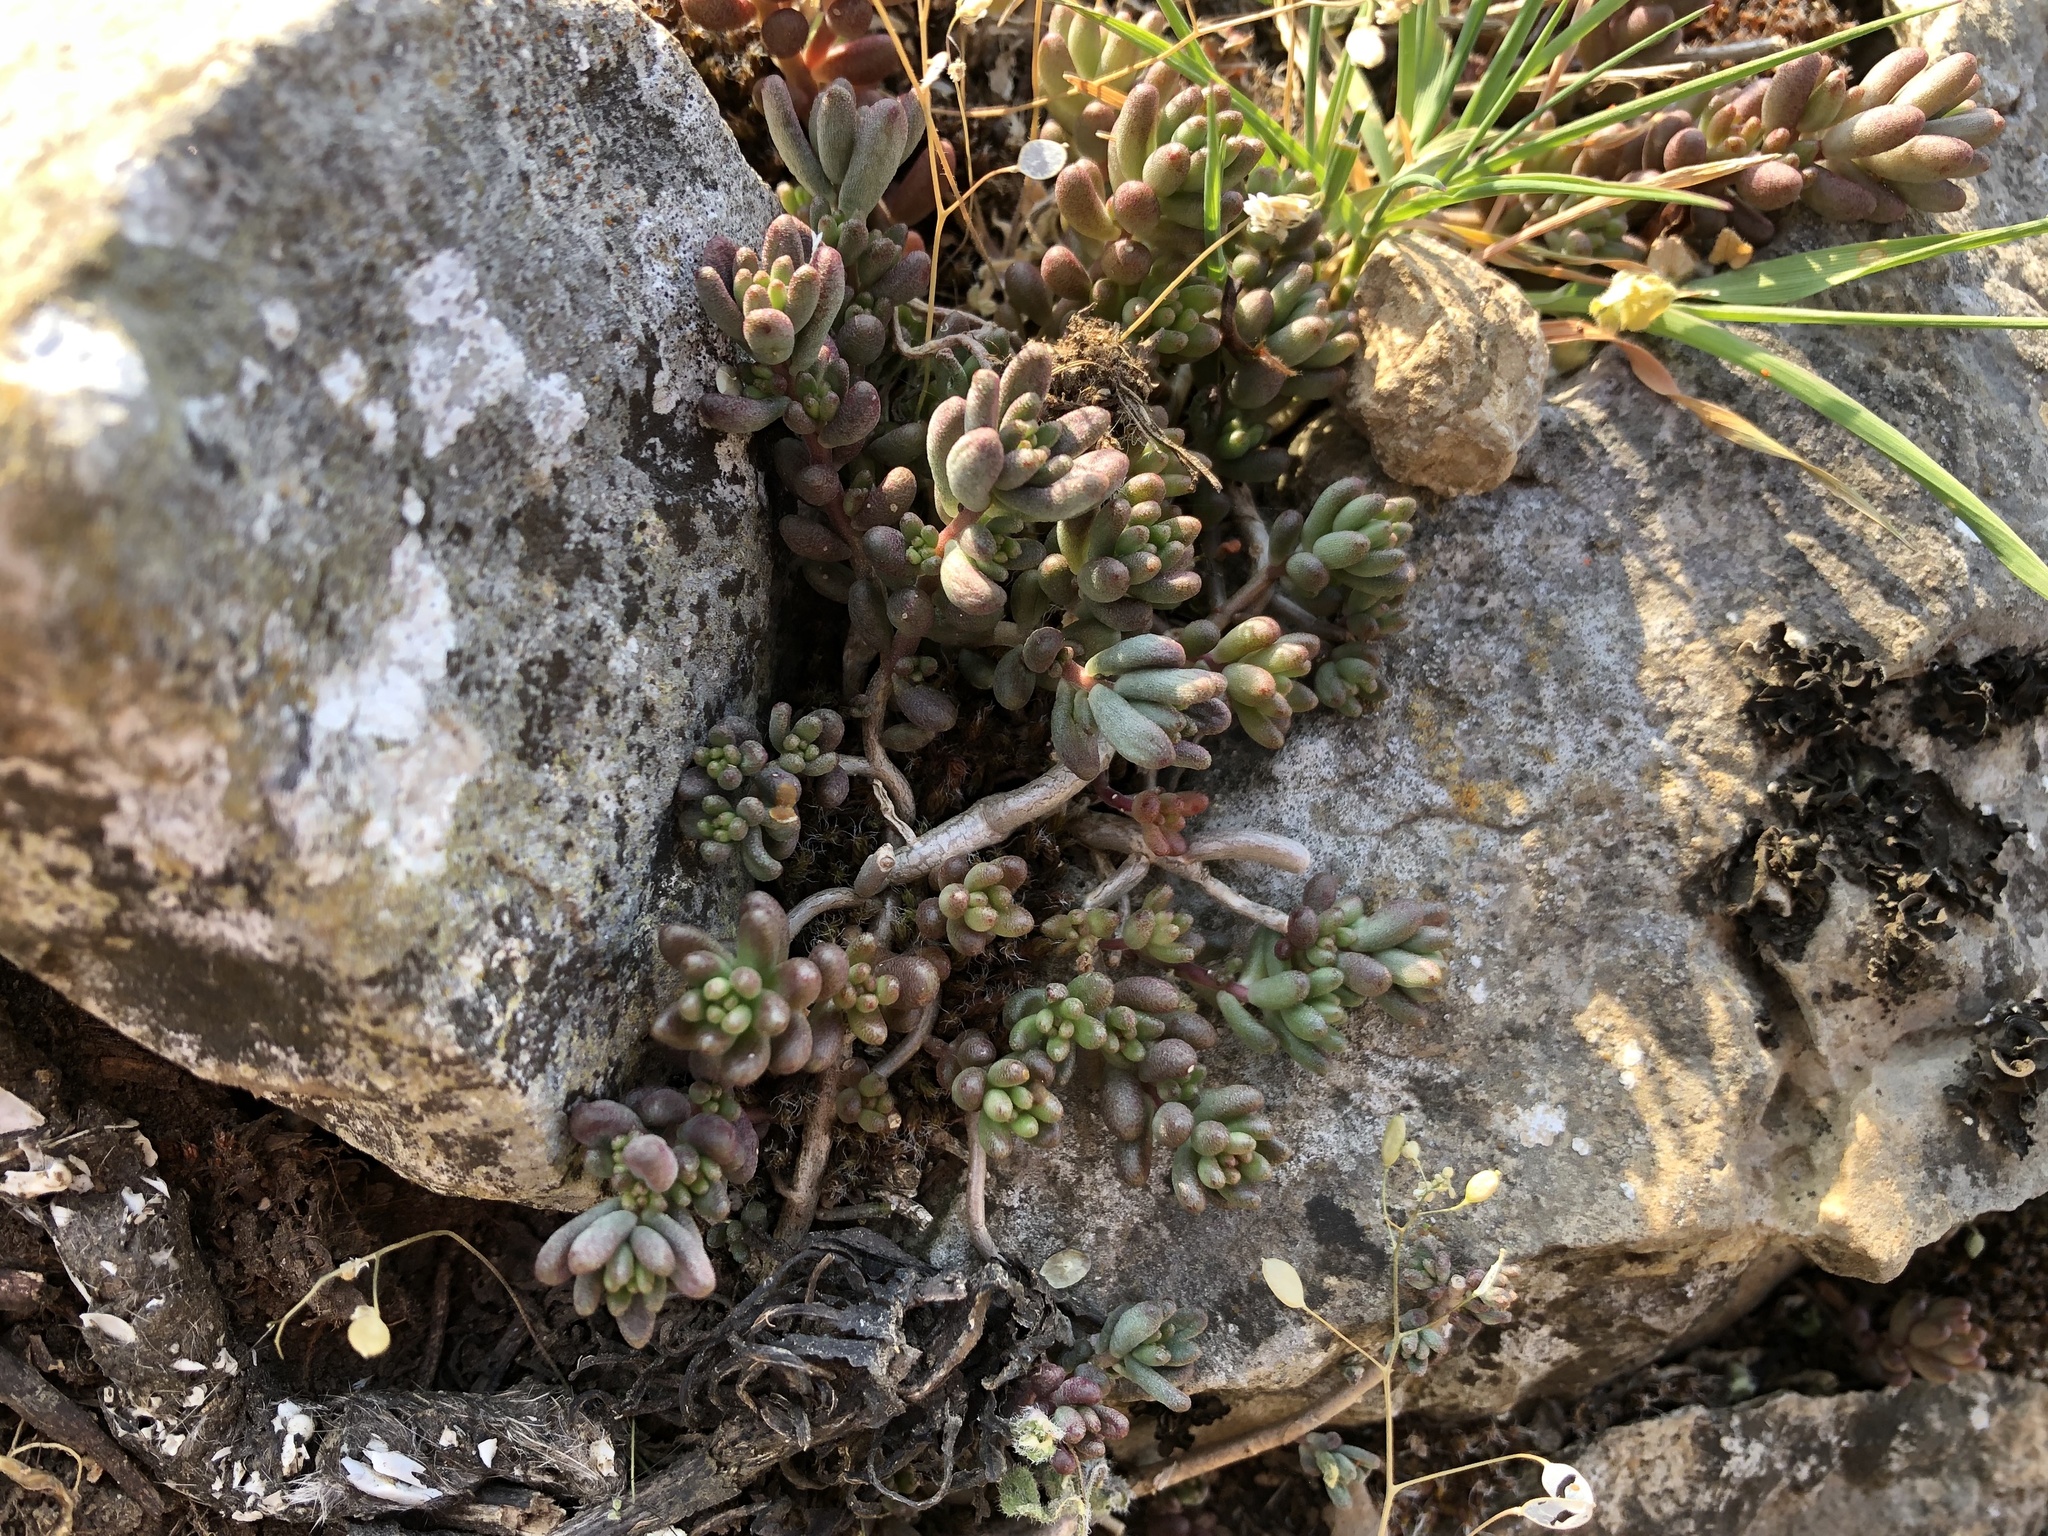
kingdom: Plantae
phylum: Tracheophyta
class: Magnoliopsida
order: Saxifragales
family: Crassulaceae
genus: Sedum
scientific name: Sedum album
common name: White stonecrop
